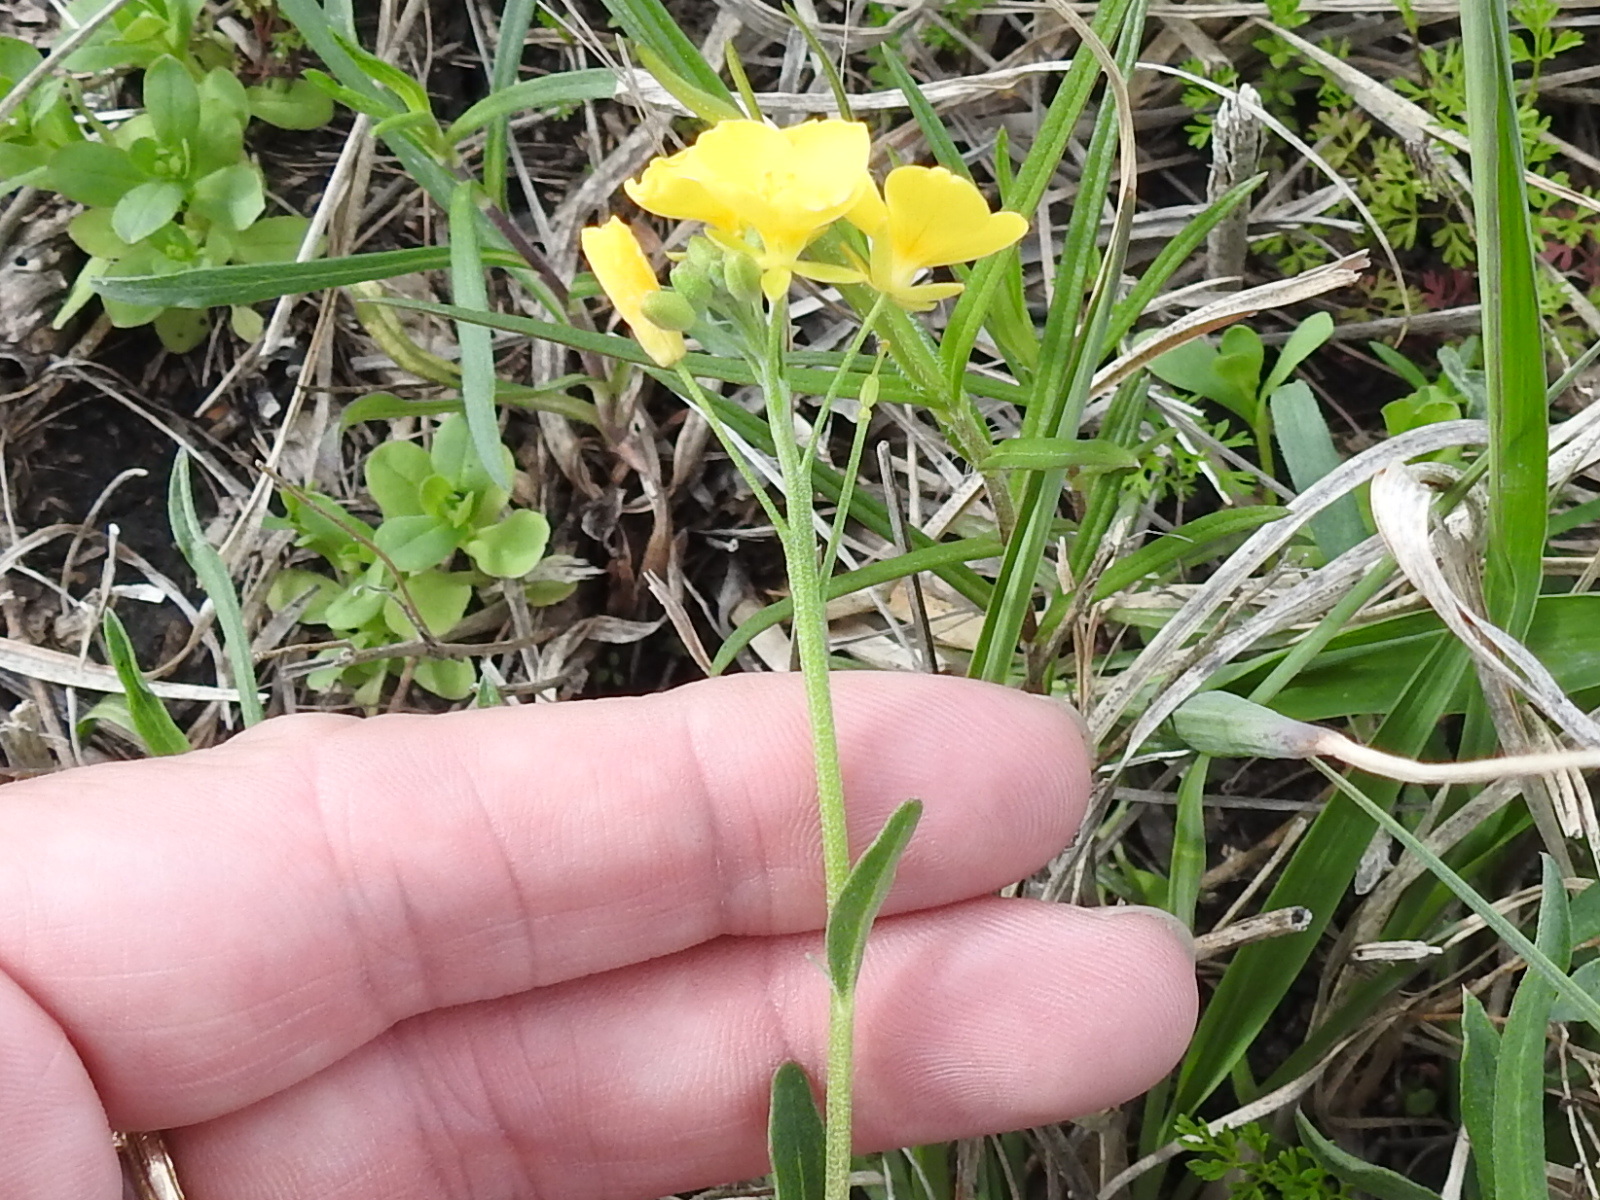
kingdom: Plantae
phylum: Tracheophyta
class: Magnoliopsida
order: Brassicales
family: Brassicaceae
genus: Physaria
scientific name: Physaria gracilis
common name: Spreading bladderpod
